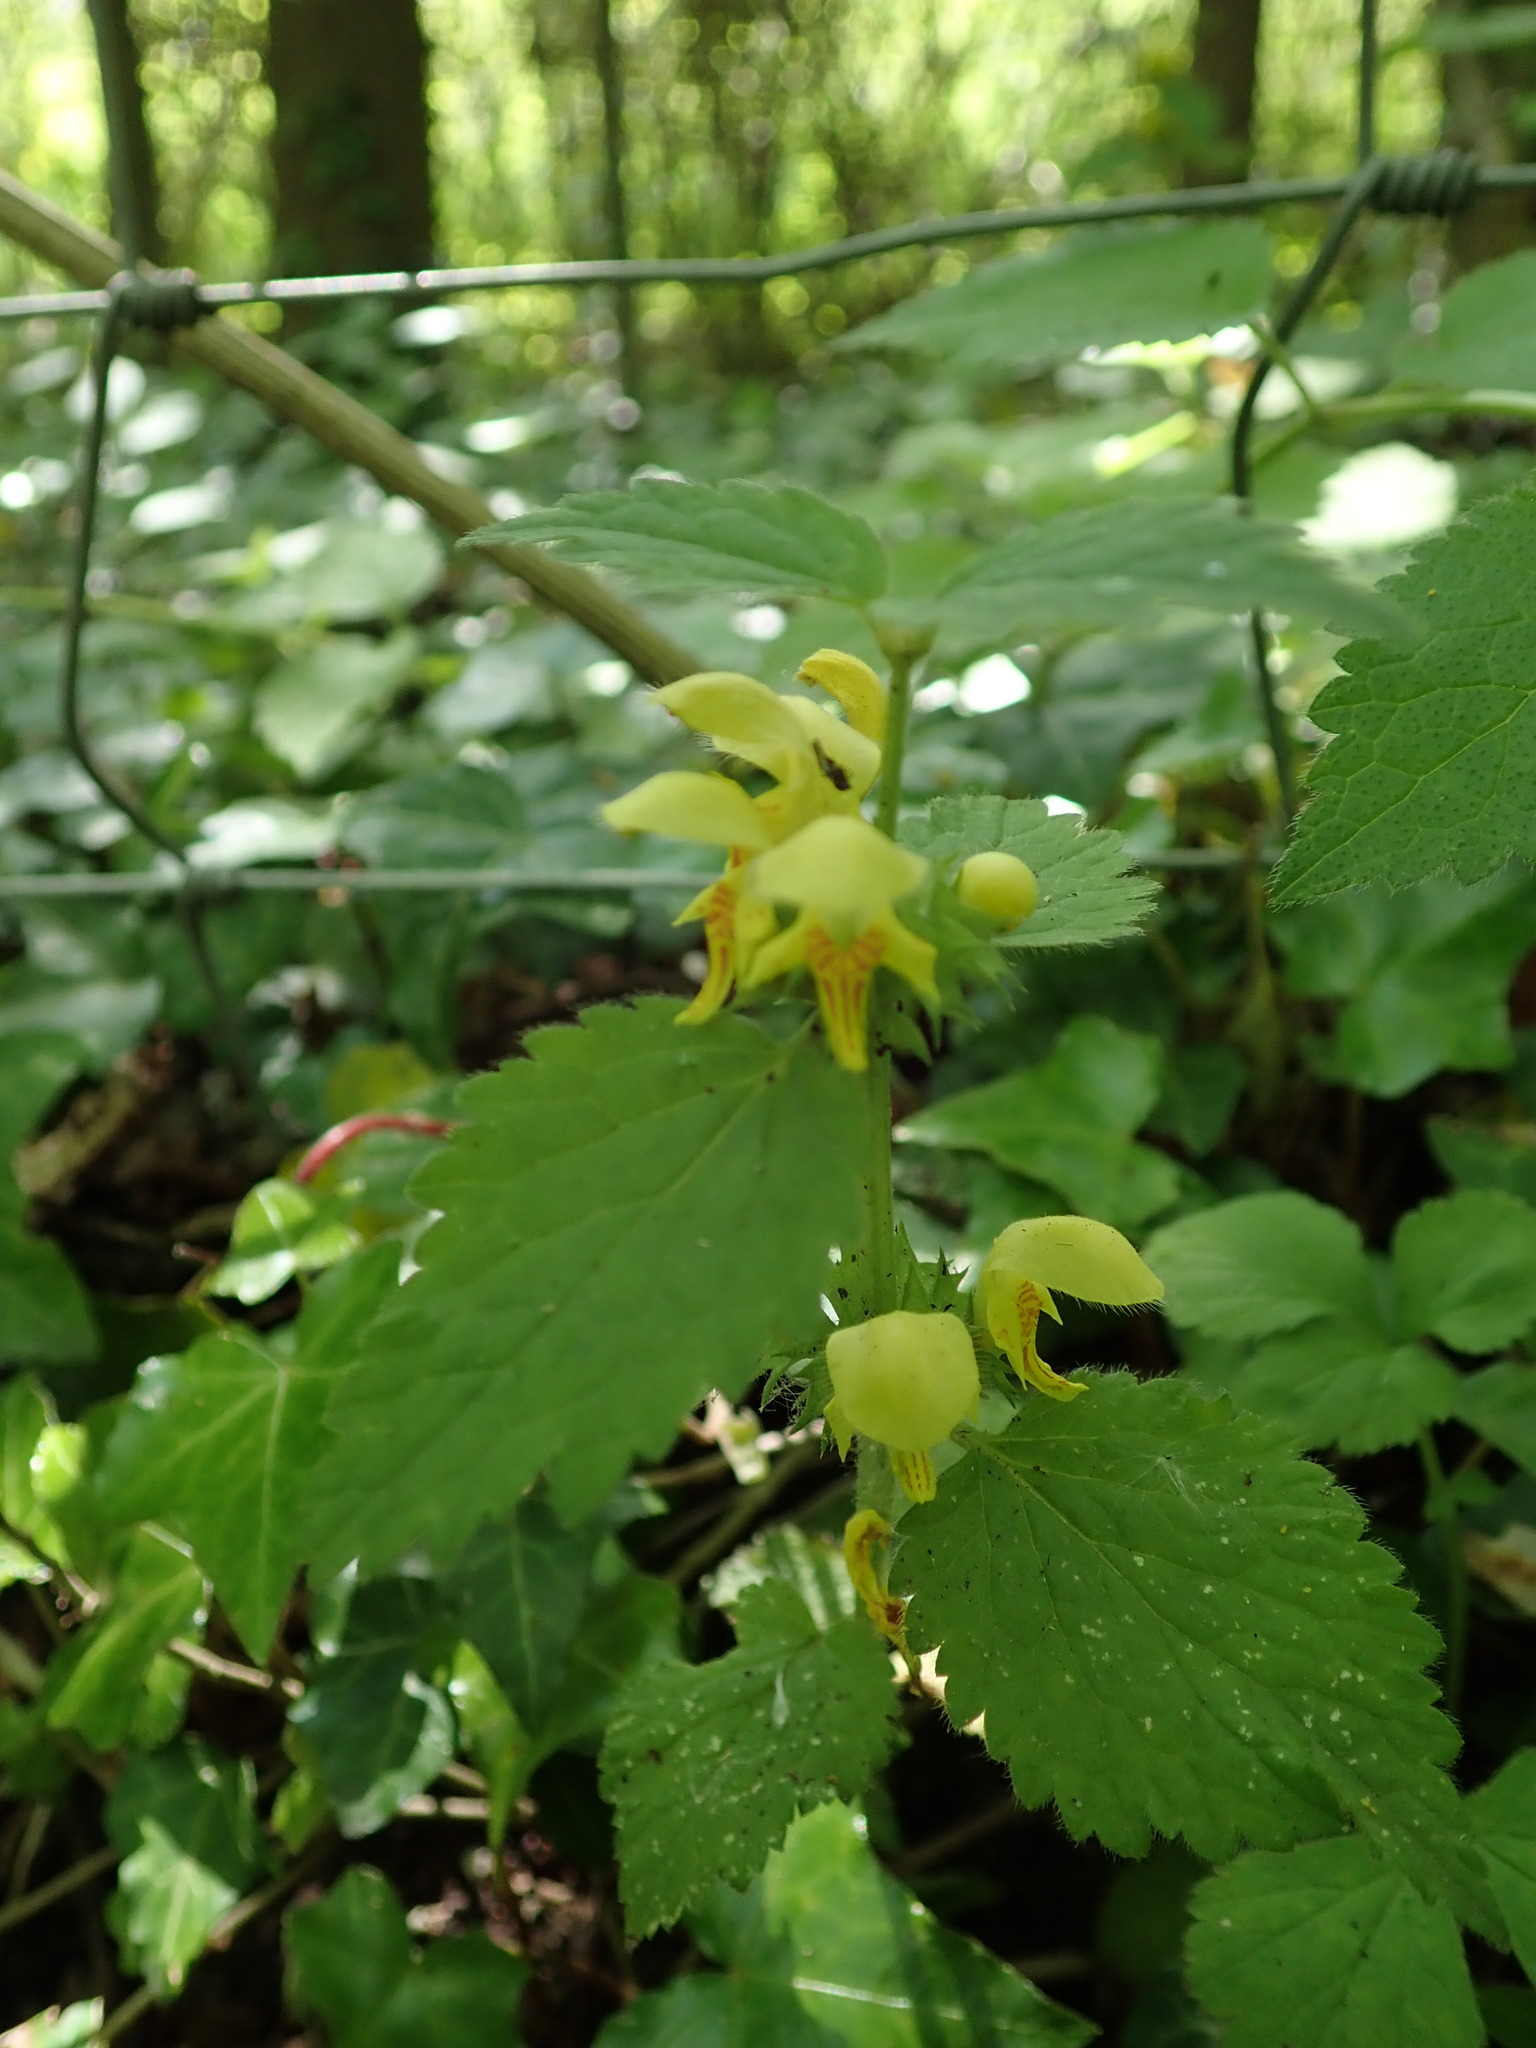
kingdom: Plantae
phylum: Tracheophyta
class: Magnoliopsida
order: Lamiales
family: Lamiaceae
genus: Lamium
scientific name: Lamium galeobdolon
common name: Yellow archangel
